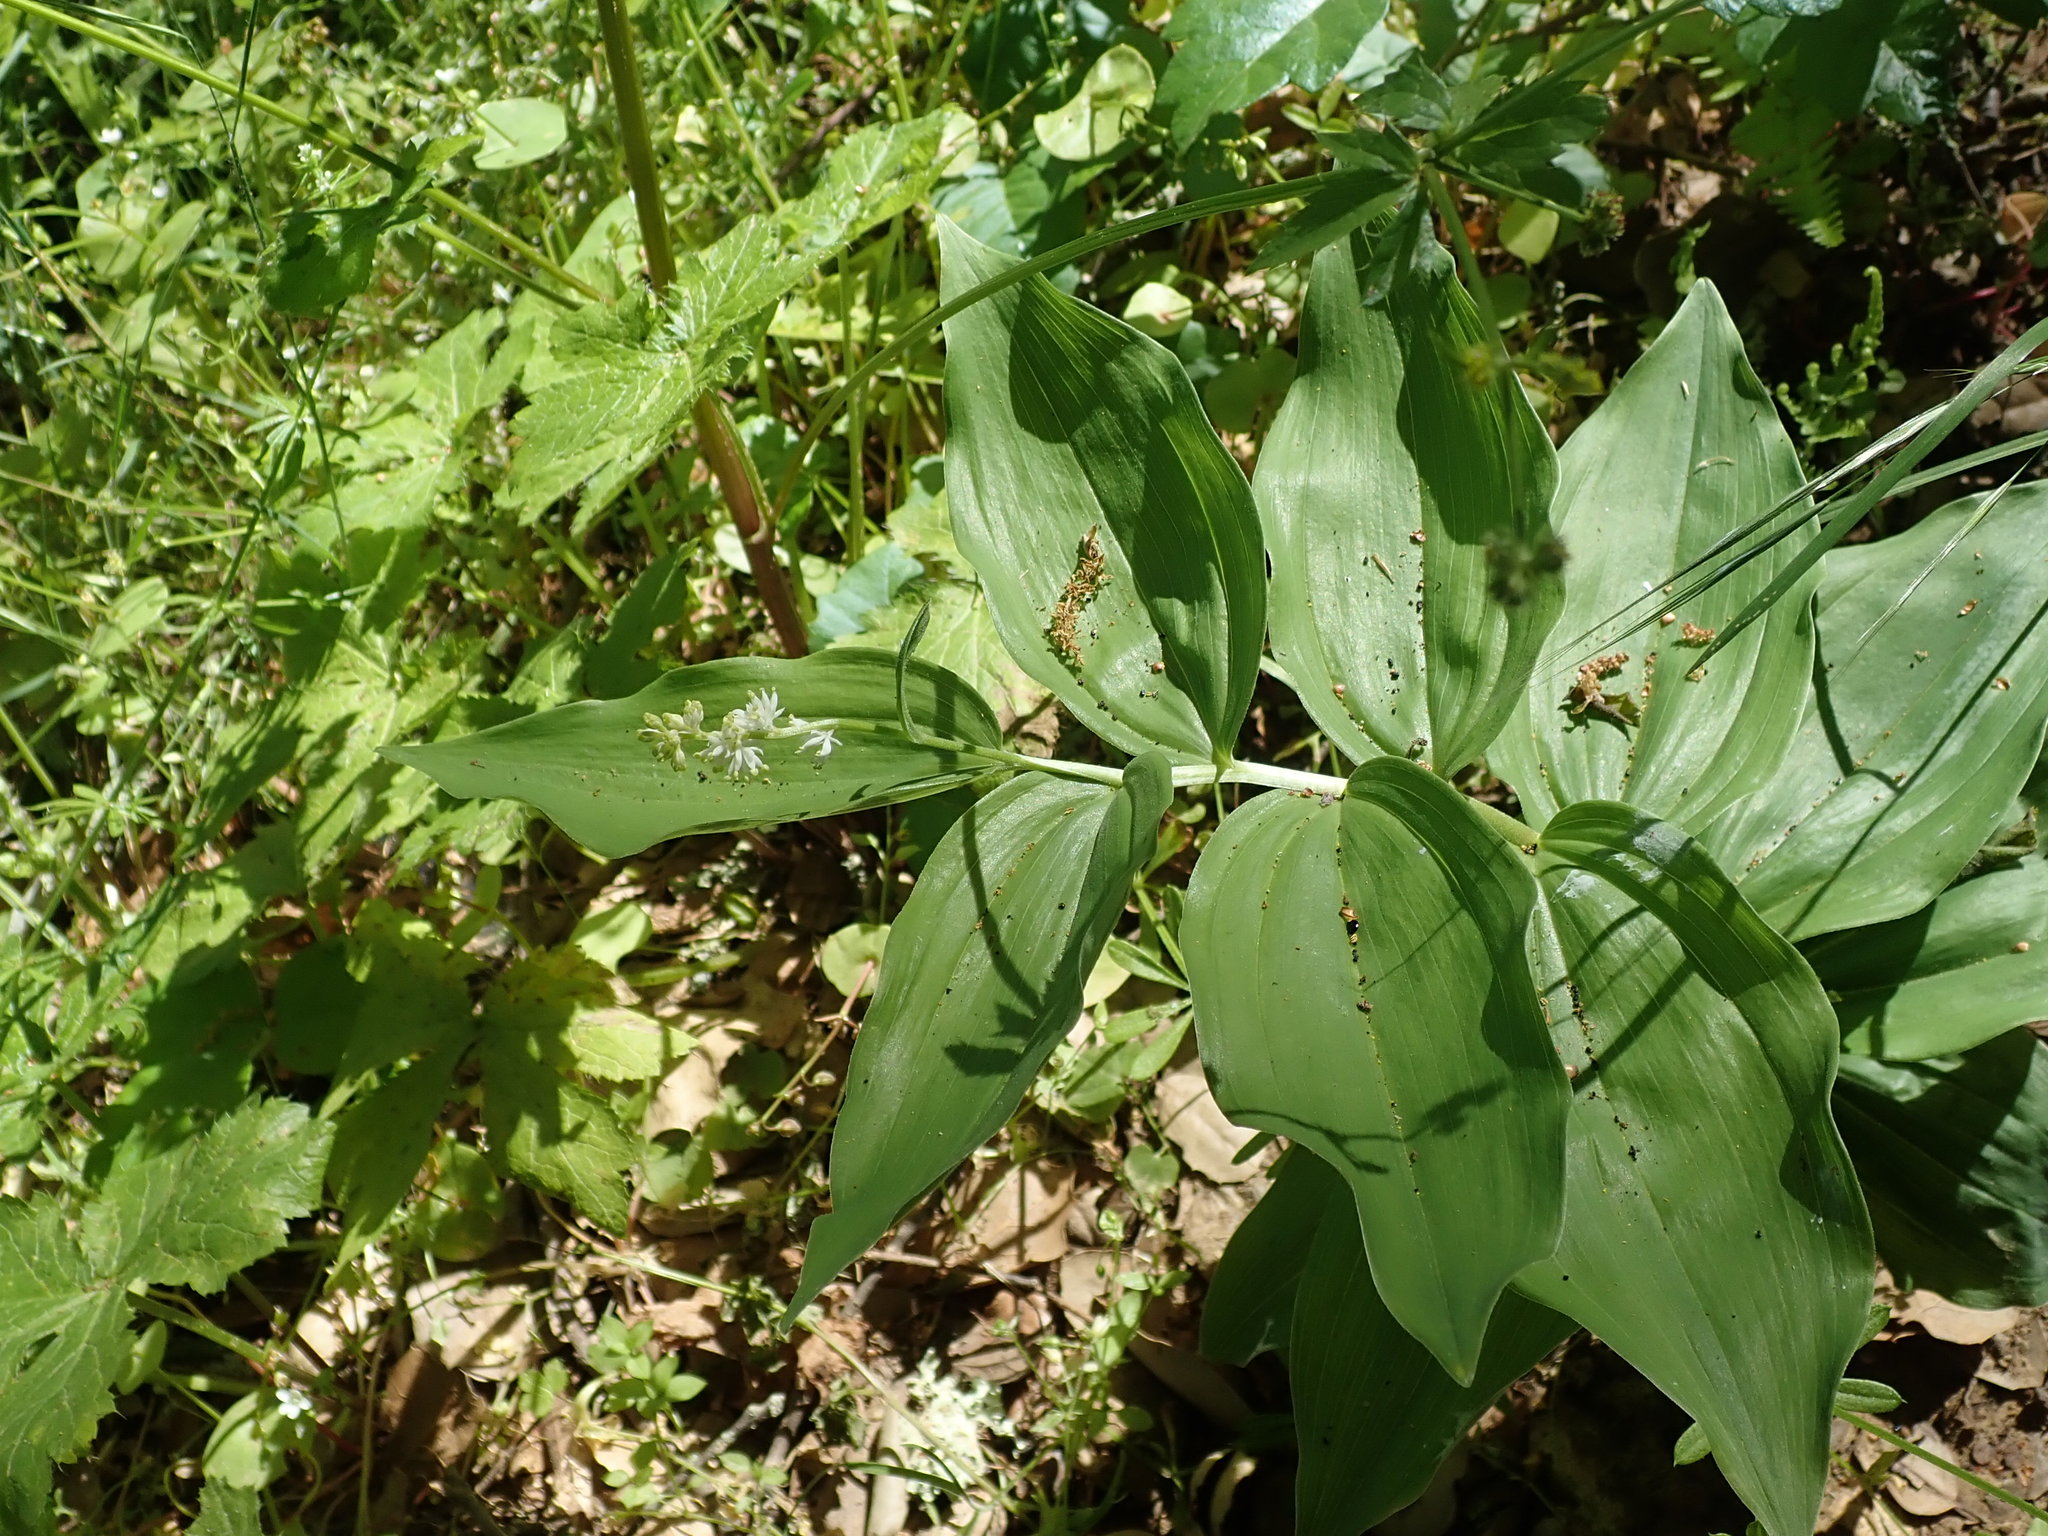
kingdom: Plantae
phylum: Tracheophyta
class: Liliopsida
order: Asparagales
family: Asparagaceae
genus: Maianthemum
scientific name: Maianthemum racemosum
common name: False spikenard
